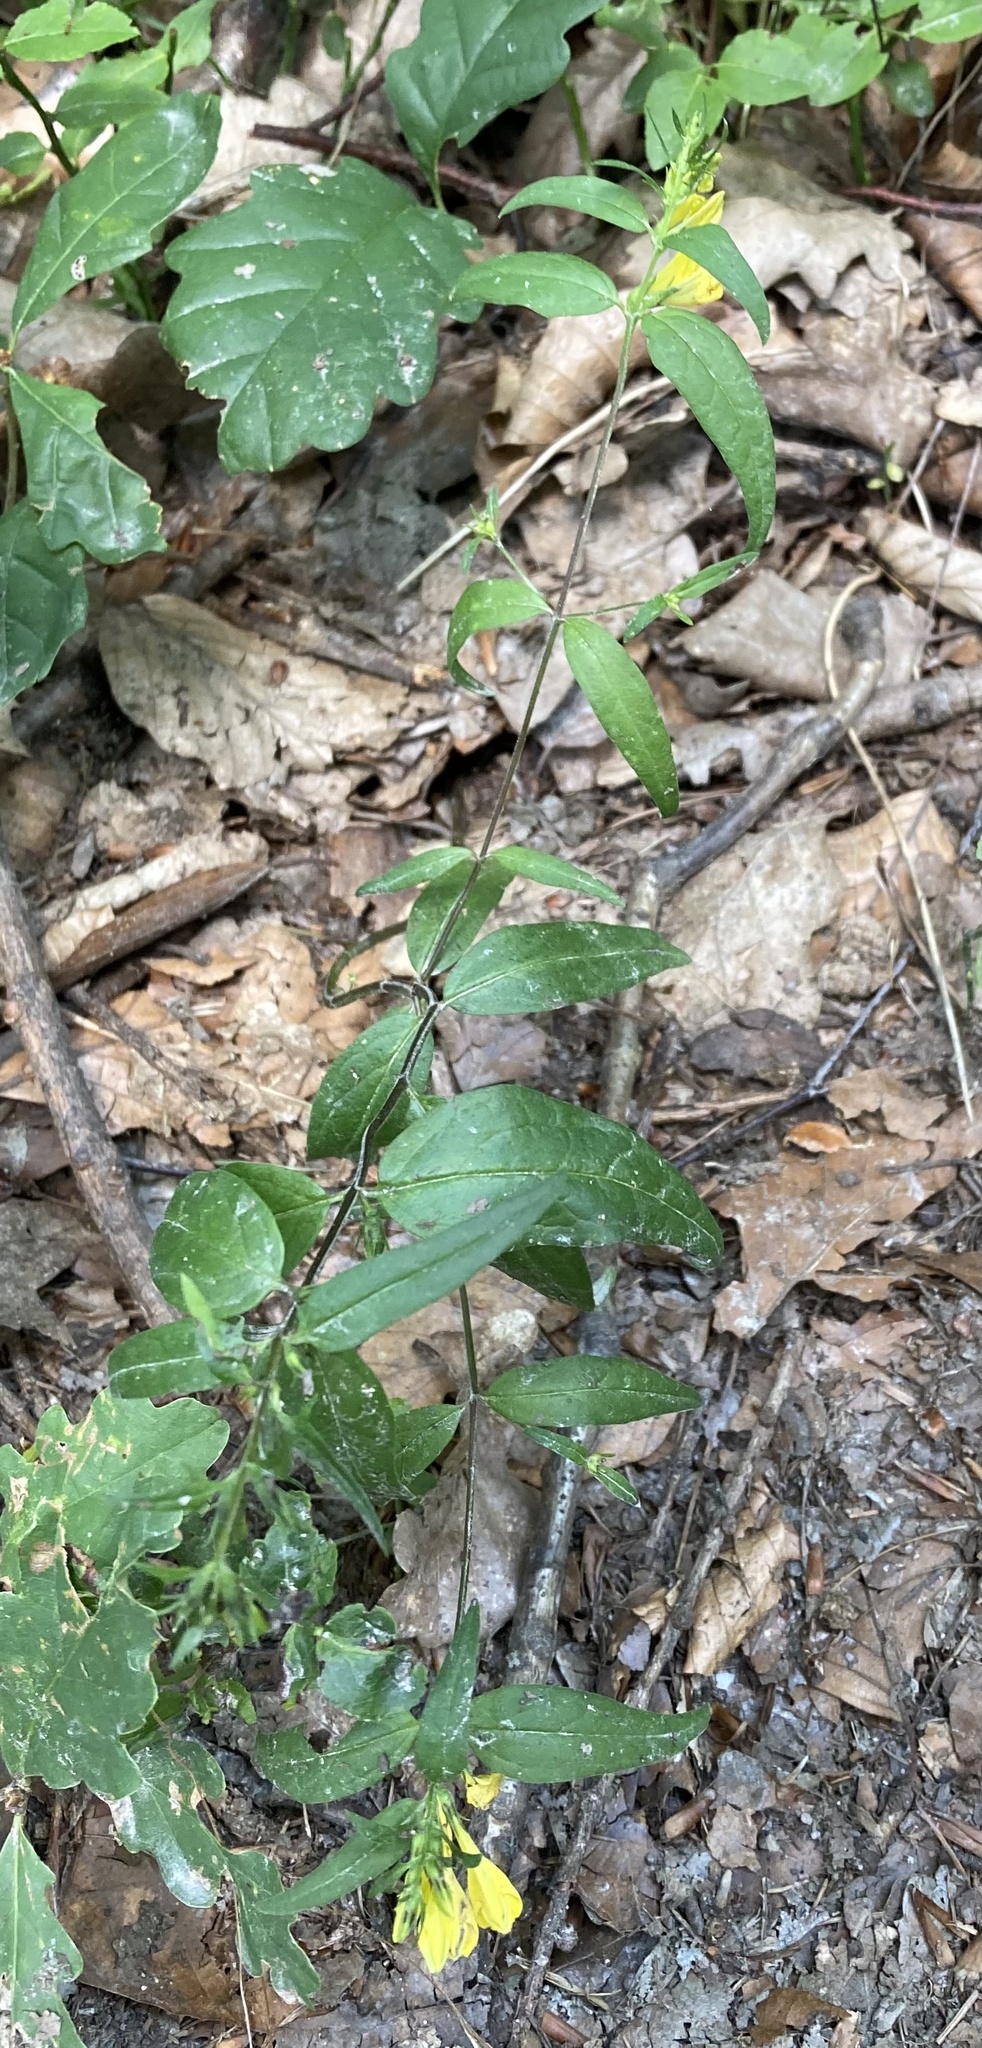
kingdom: Plantae
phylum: Tracheophyta
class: Magnoliopsida
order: Lamiales
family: Orobanchaceae
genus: Melampyrum
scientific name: Melampyrum pratense
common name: Common cow-wheat
